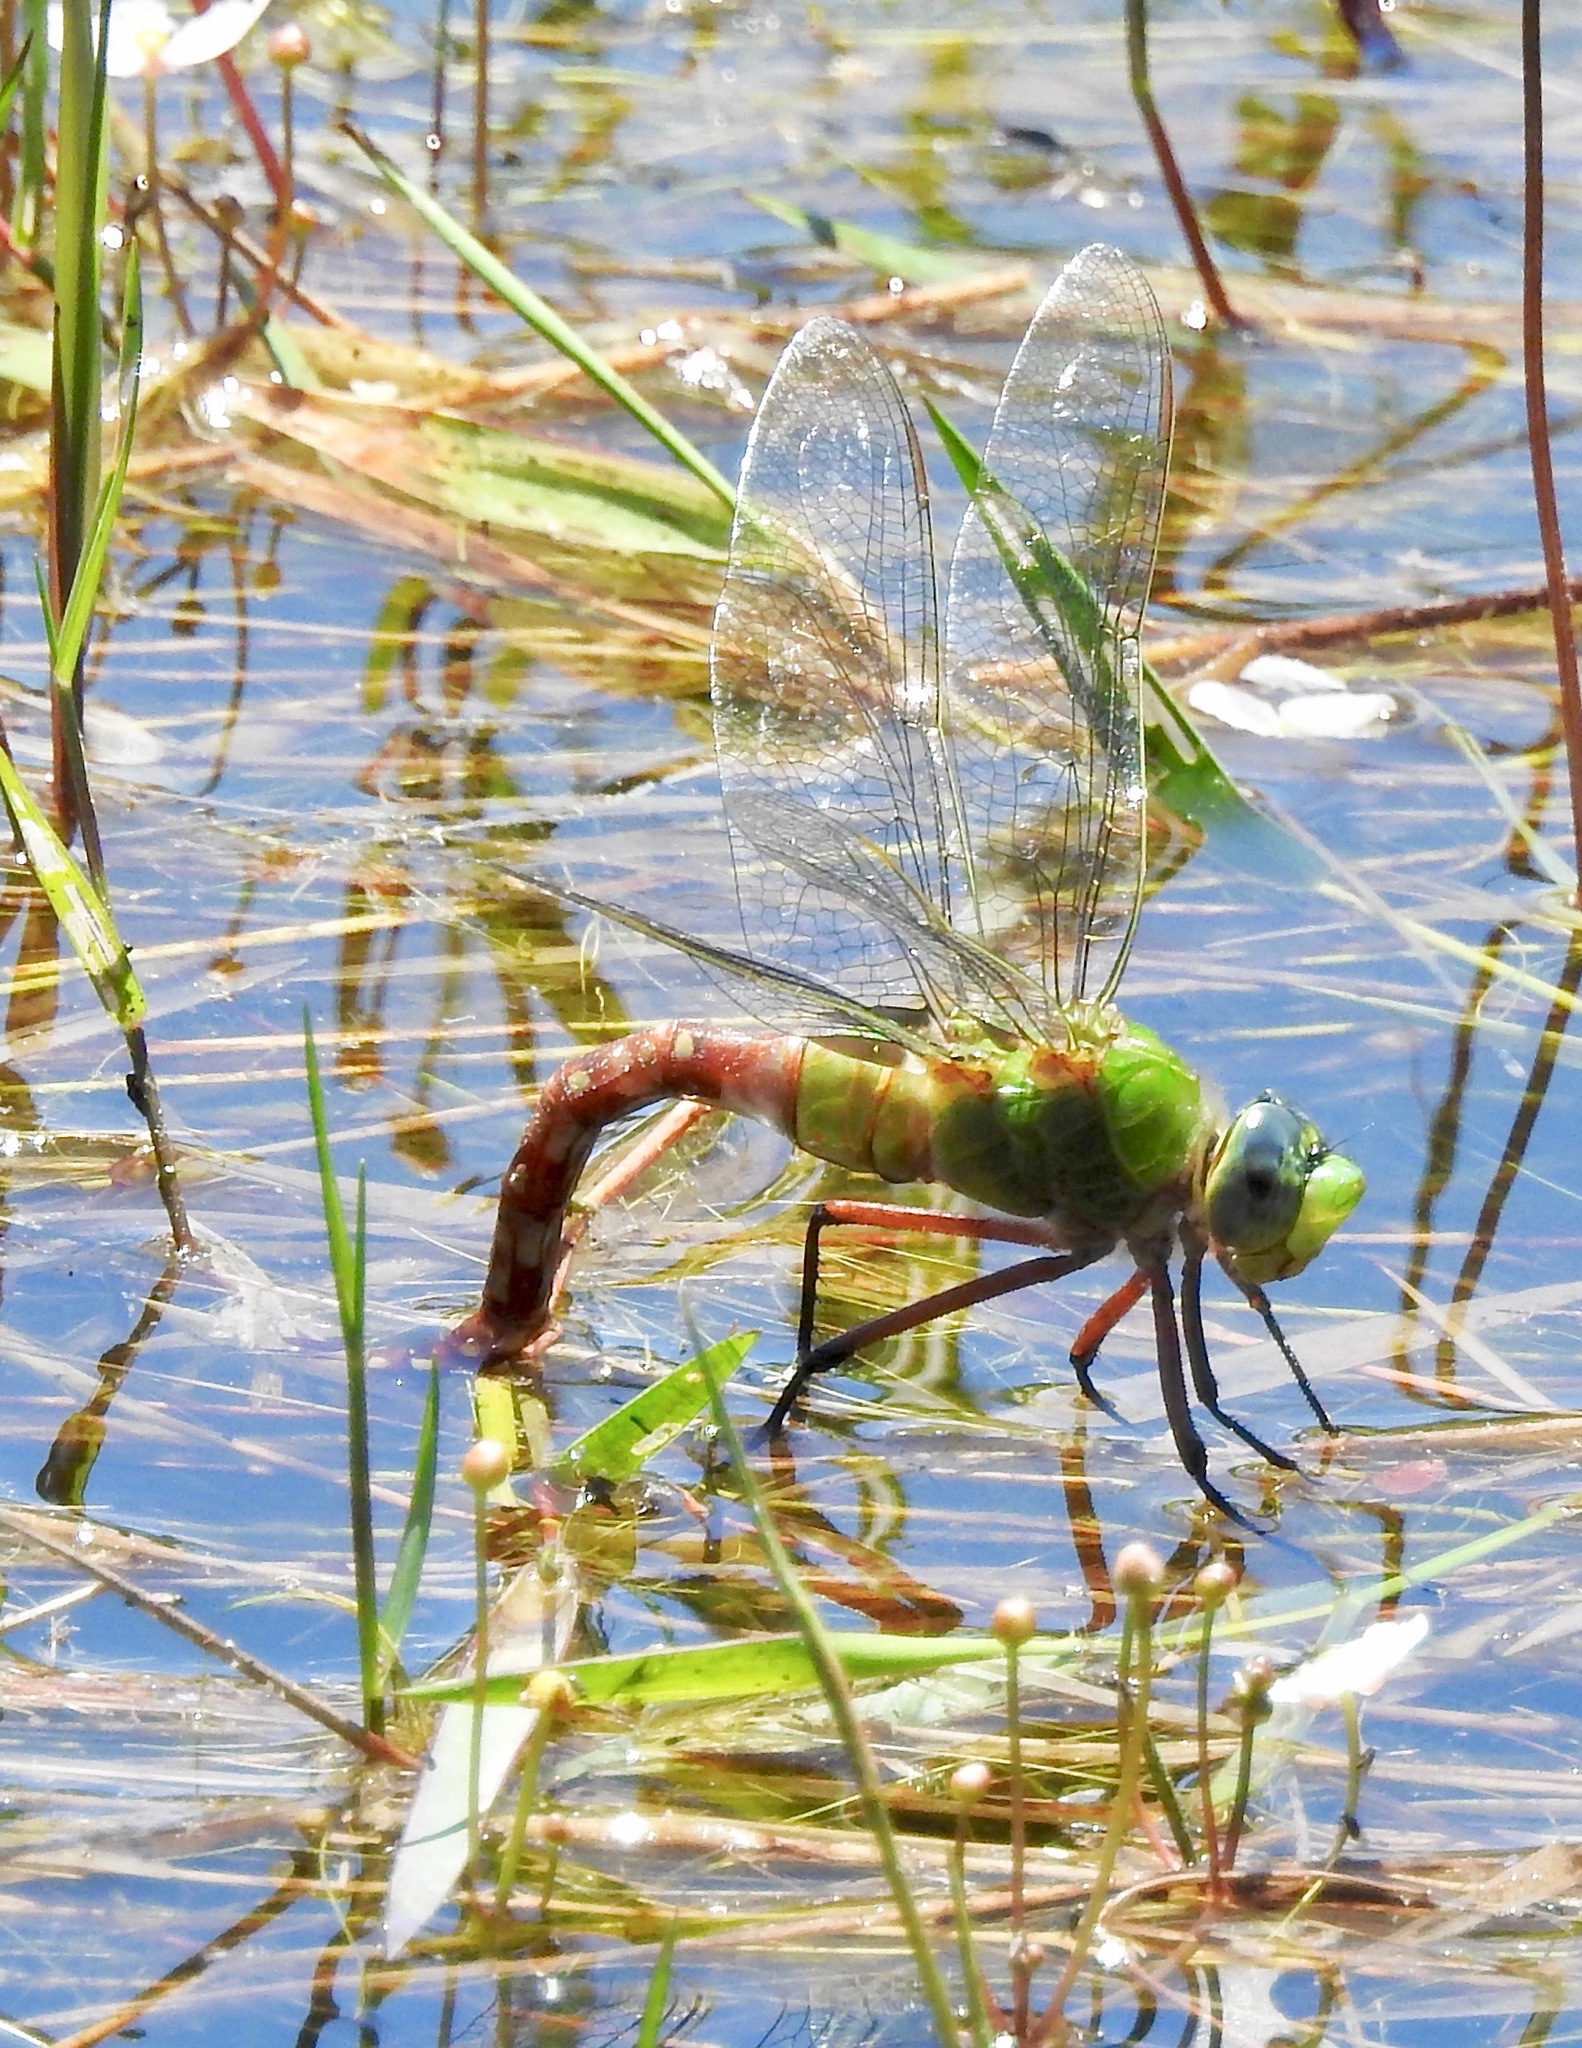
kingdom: Animalia
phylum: Arthropoda
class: Insecta
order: Odonata
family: Aeshnidae
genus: Anax
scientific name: Anax longipes
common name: Comet darner
